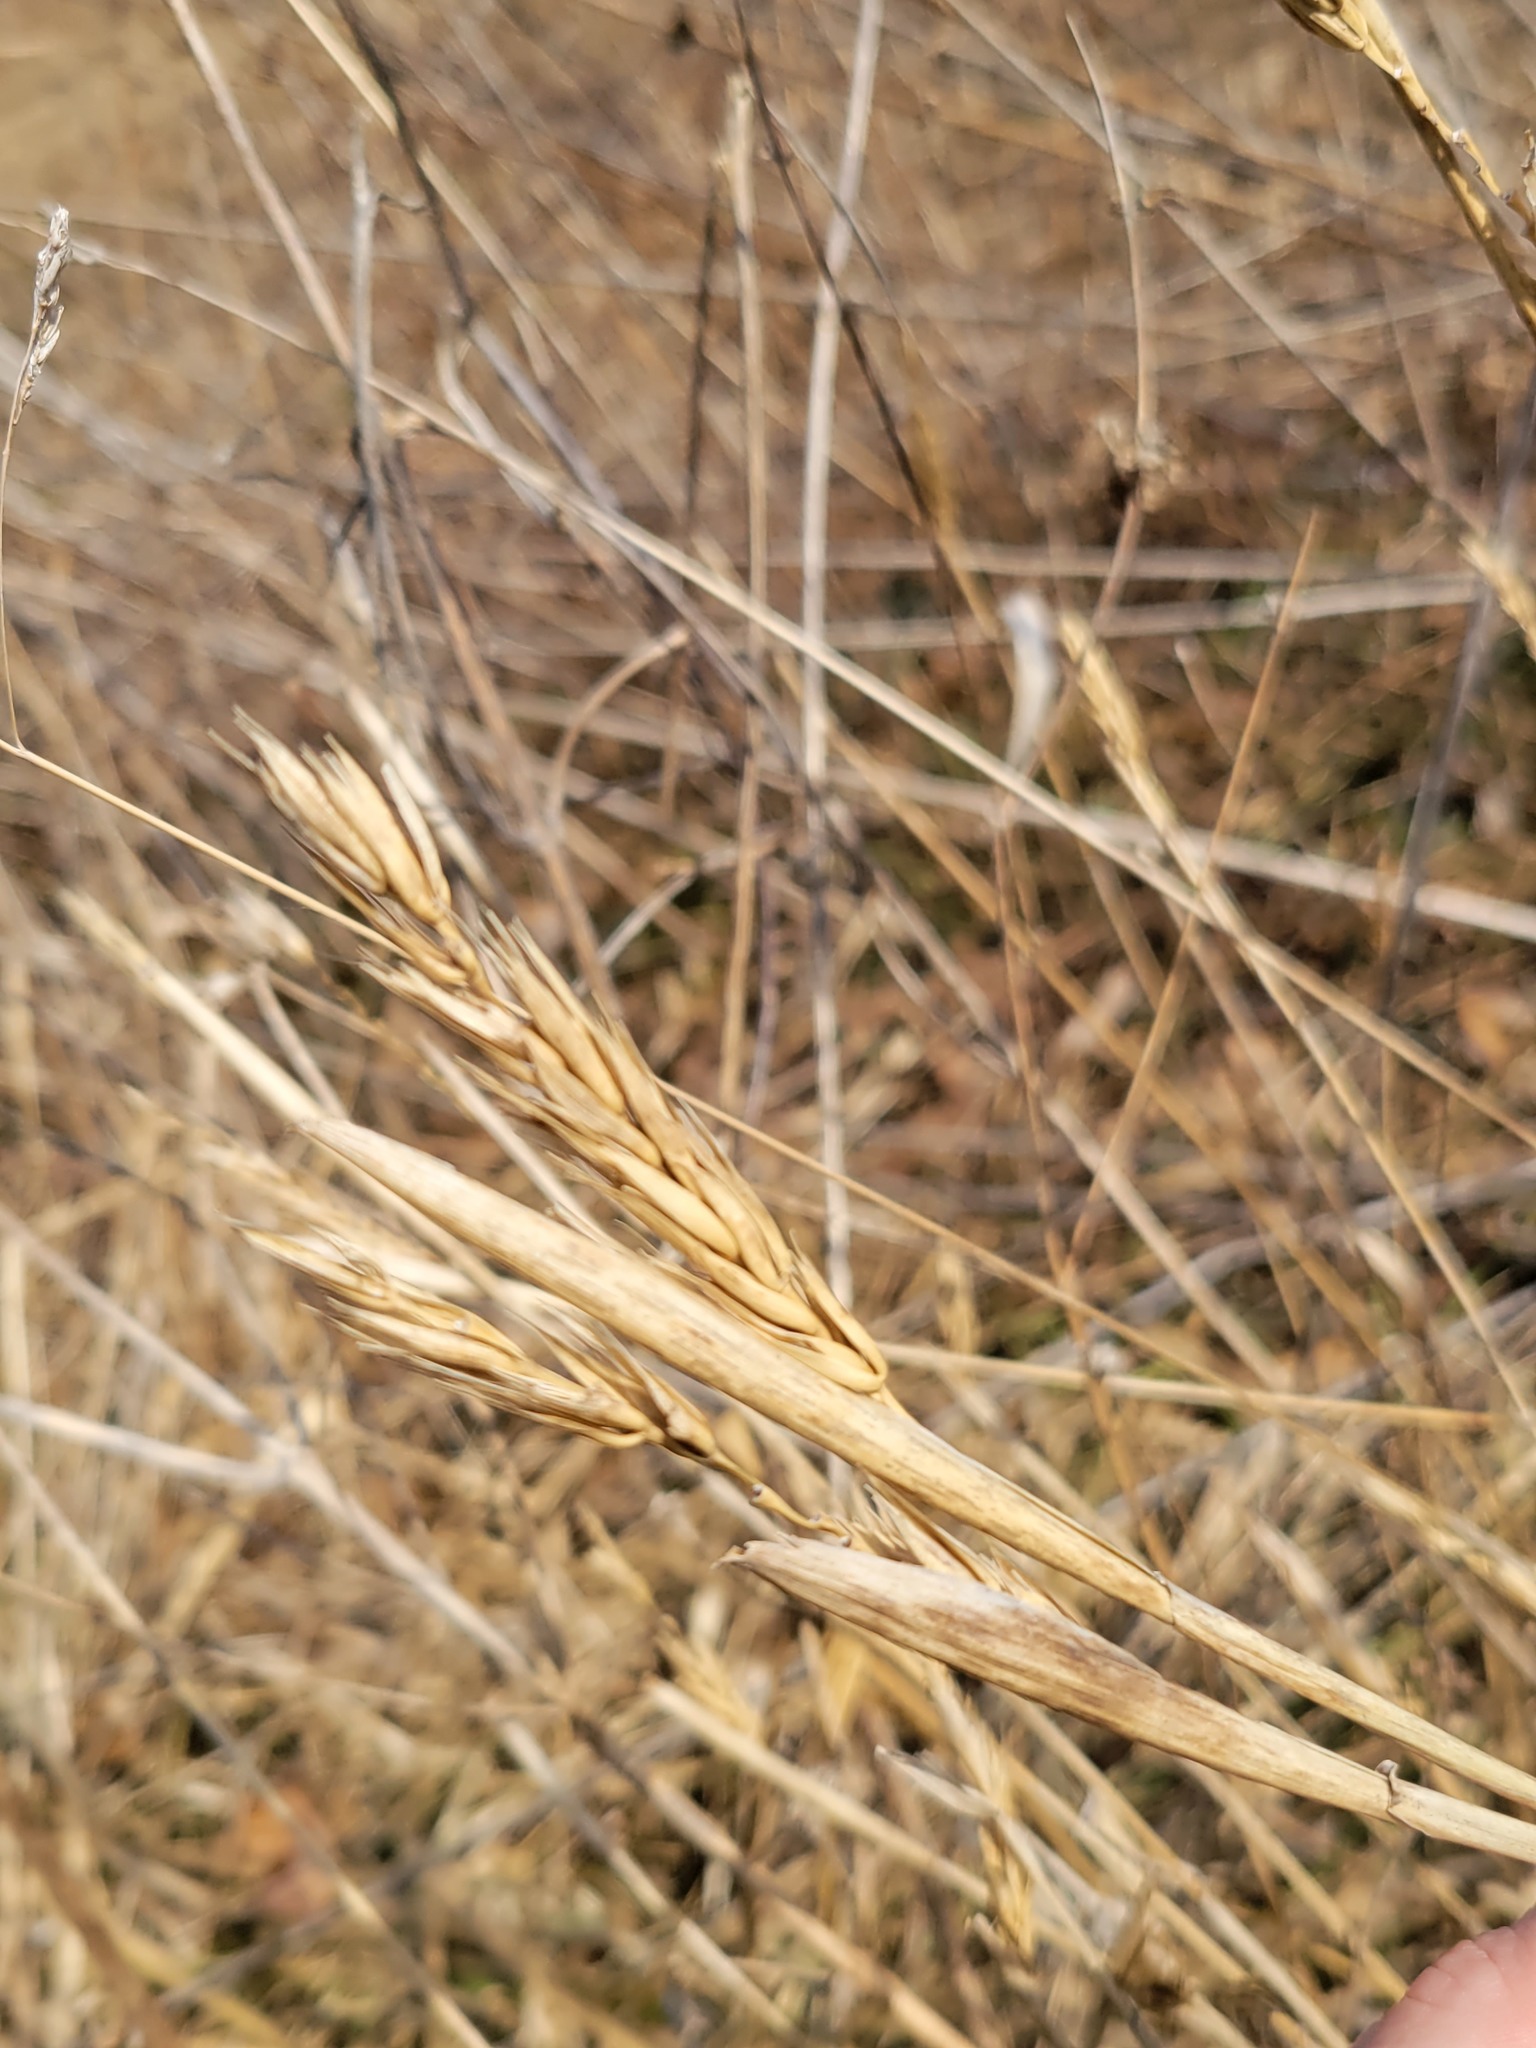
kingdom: Plantae
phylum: Tracheophyta
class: Liliopsida
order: Poales
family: Poaceae
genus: Elymus
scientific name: Elymus virginicus
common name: Common eastern wildrye
